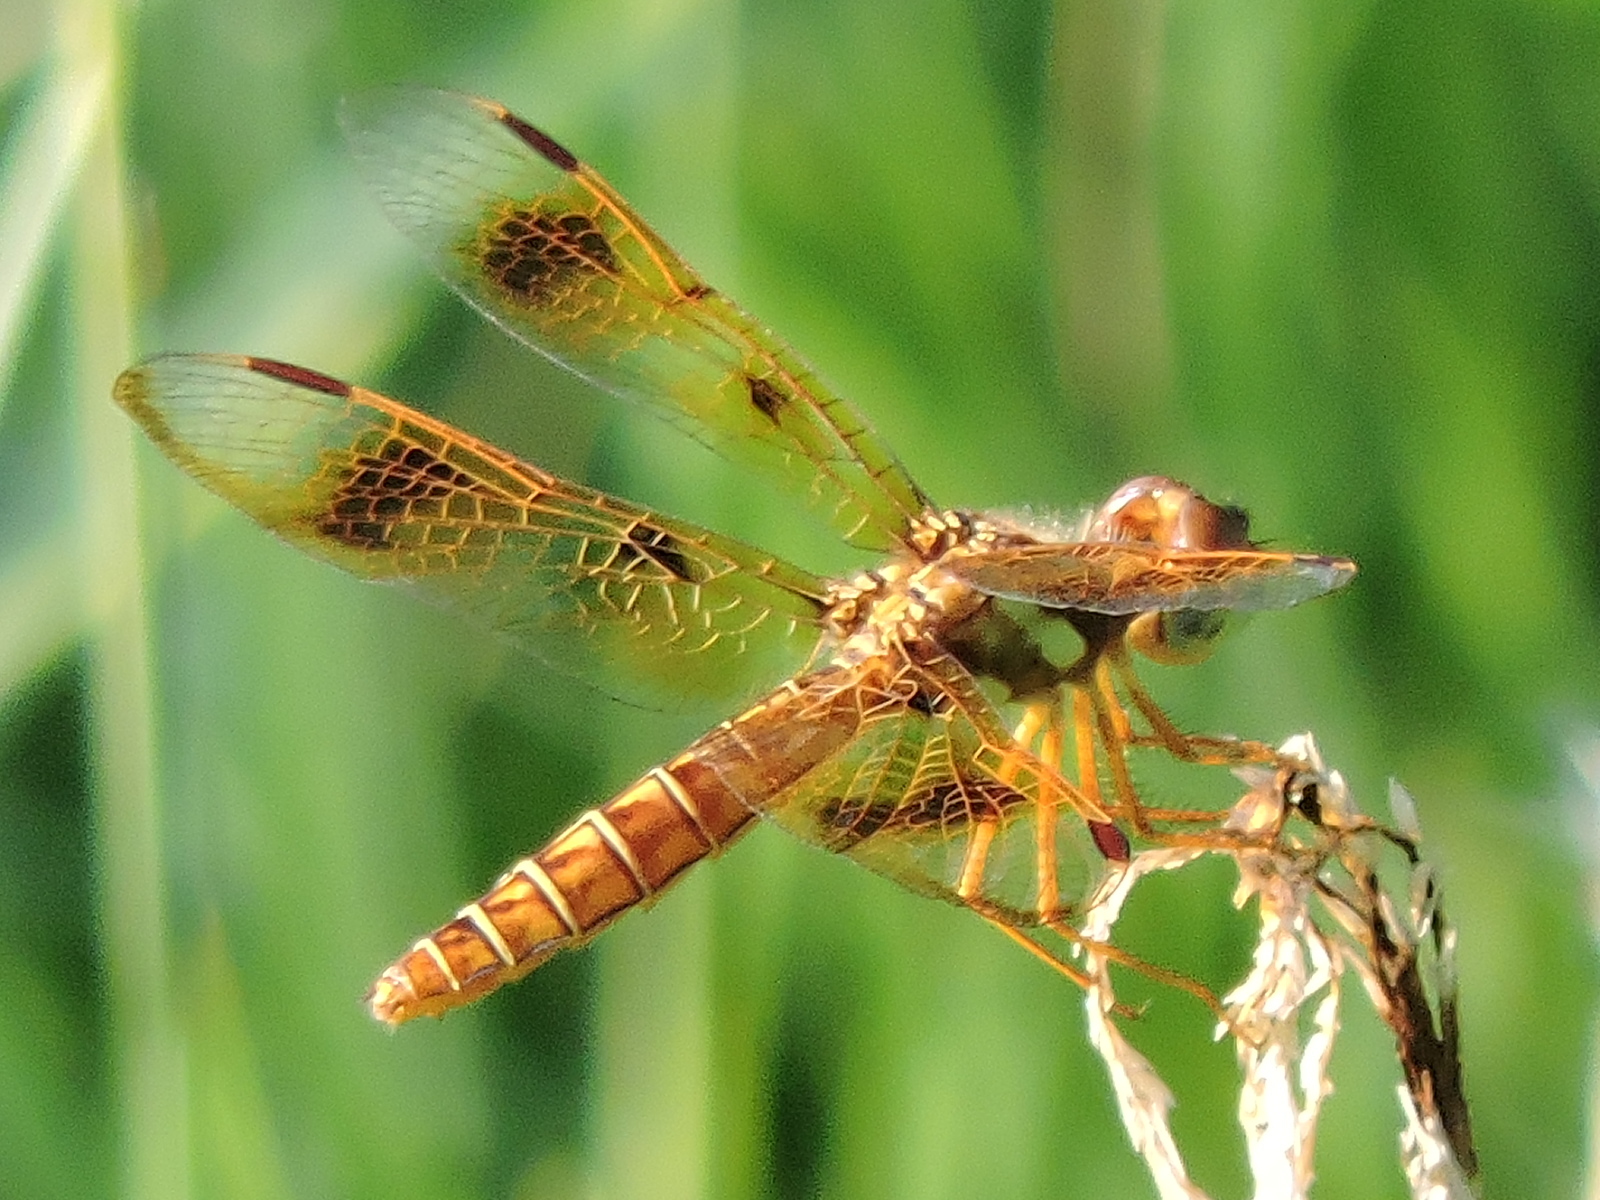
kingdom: Animalia
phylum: Arthropoda
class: Insecta
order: Odonata
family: Libellulidae
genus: Perithemis
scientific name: Perithemis tenera
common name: Eastern amberwing
